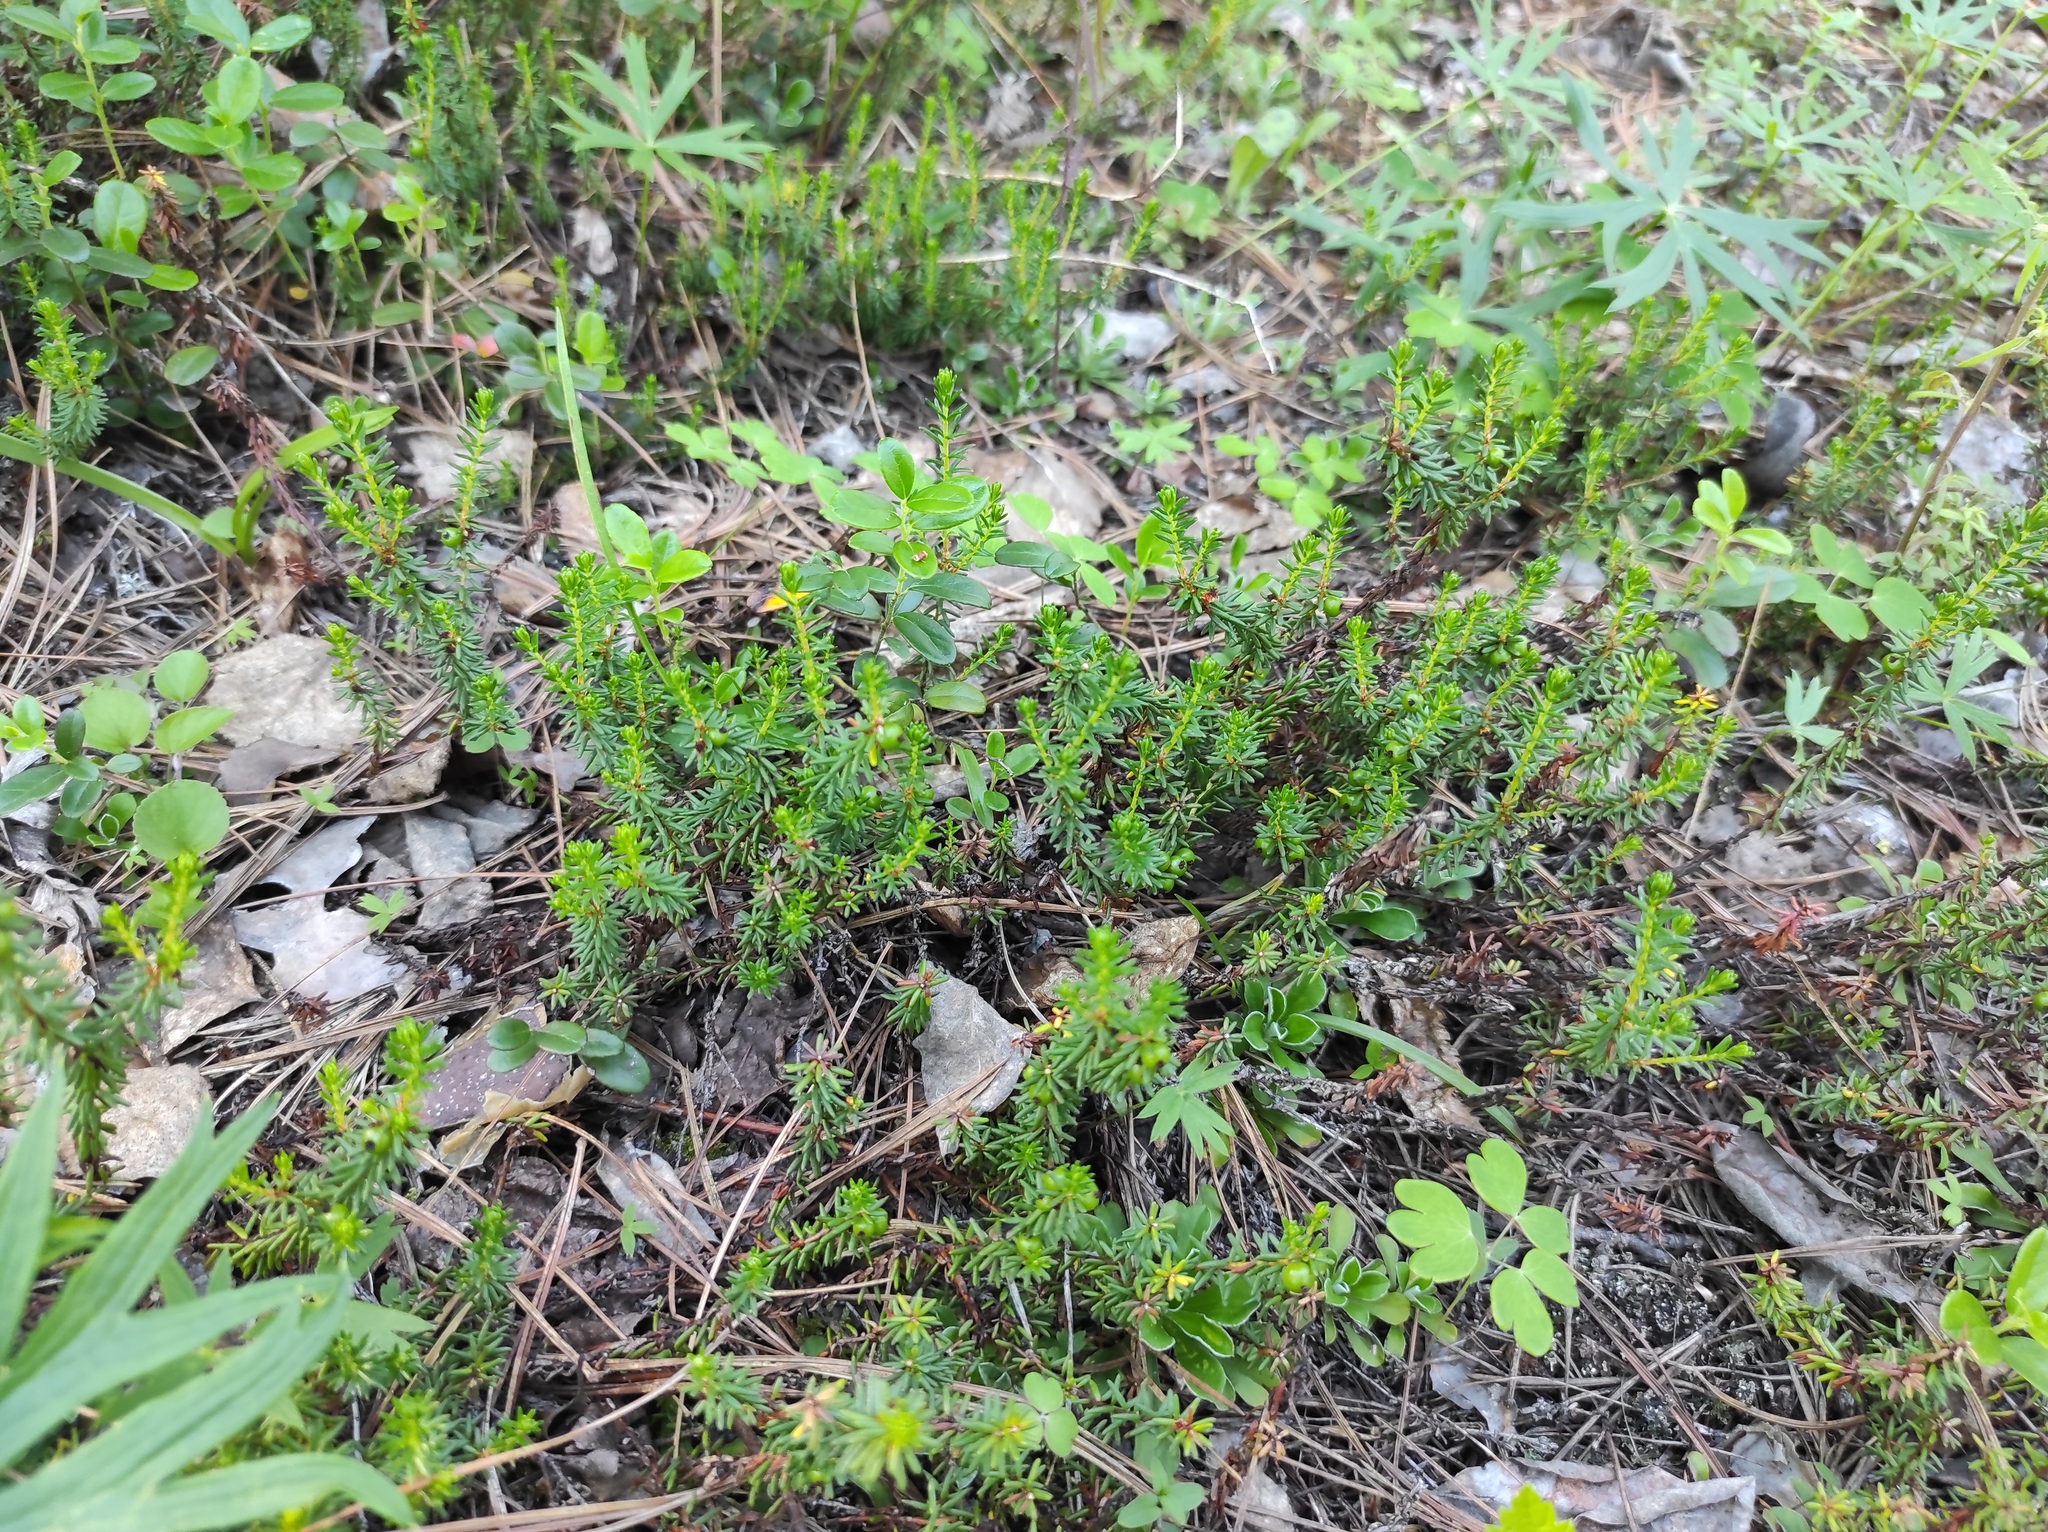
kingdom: Plantae
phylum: Tracheophyta
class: Magnoliopsida
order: Ericales
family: Ericaceae
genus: Empetrum
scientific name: Empetrum nigrum
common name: Black crowberry
